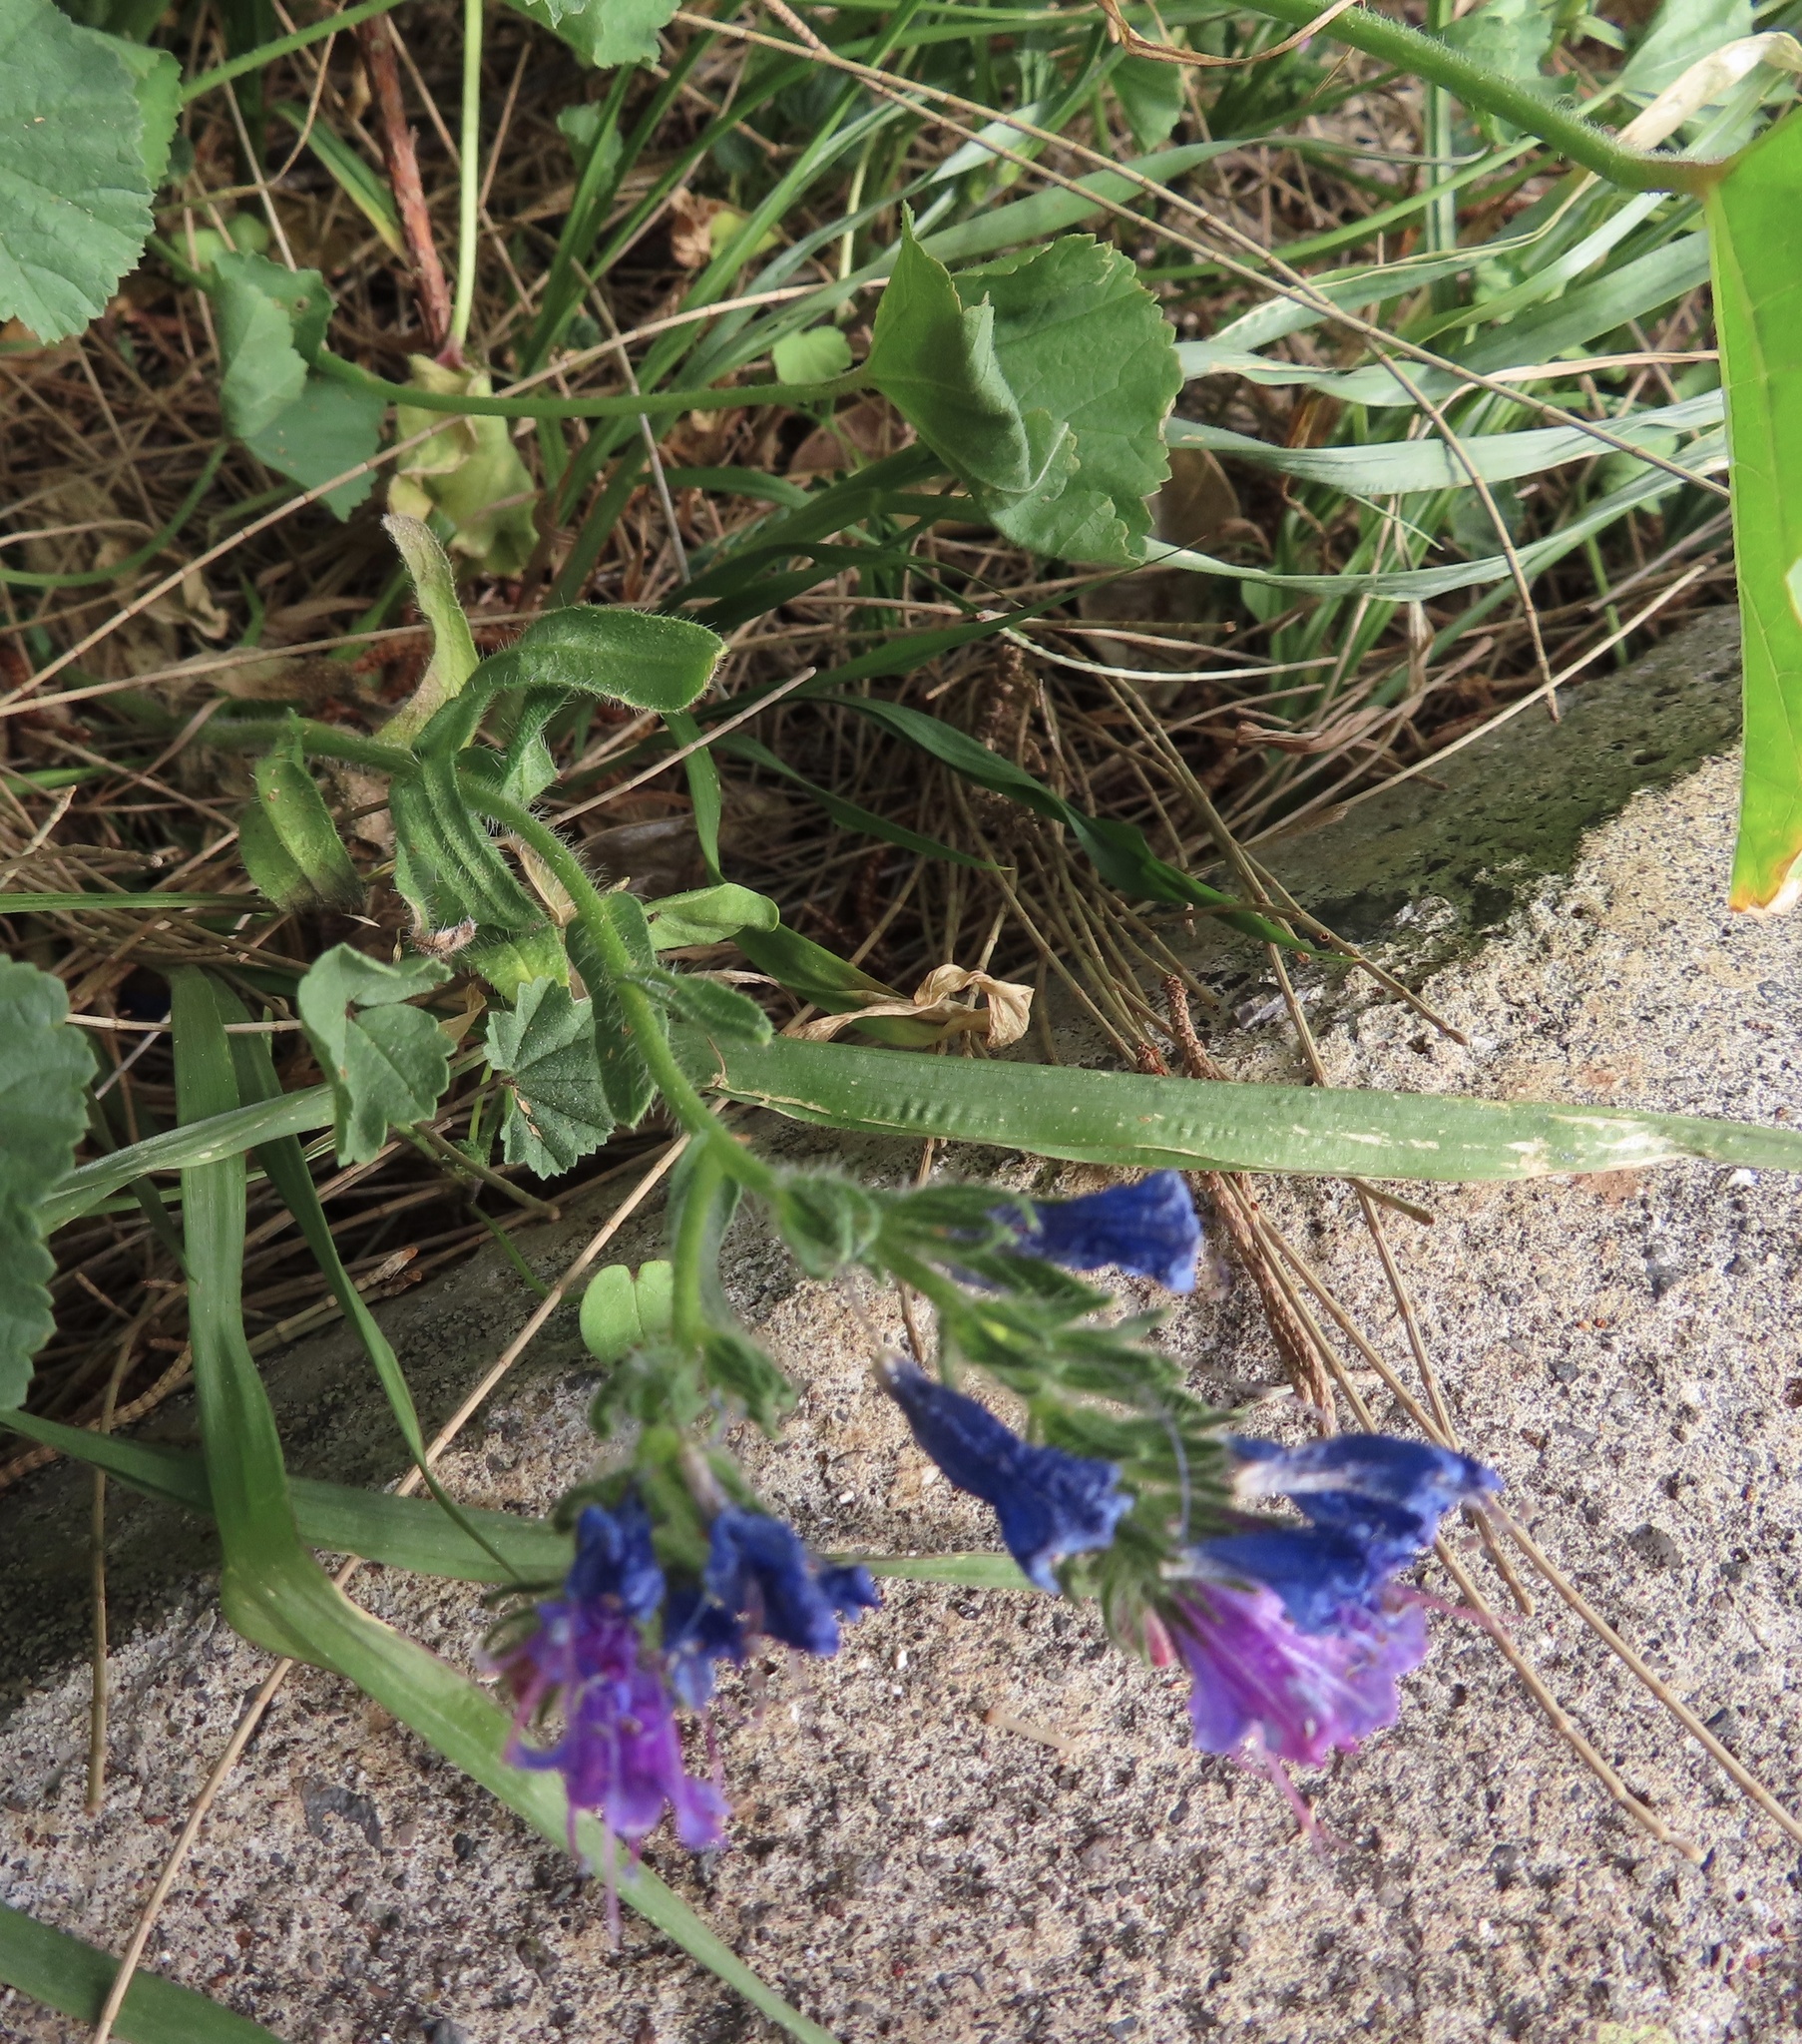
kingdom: Plantae
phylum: Tracheophyta
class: Magnoliopsida
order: Boraginales
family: Boraginaceae
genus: Echium
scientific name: Echium plantagineum
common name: Purple viper's-bugloss
